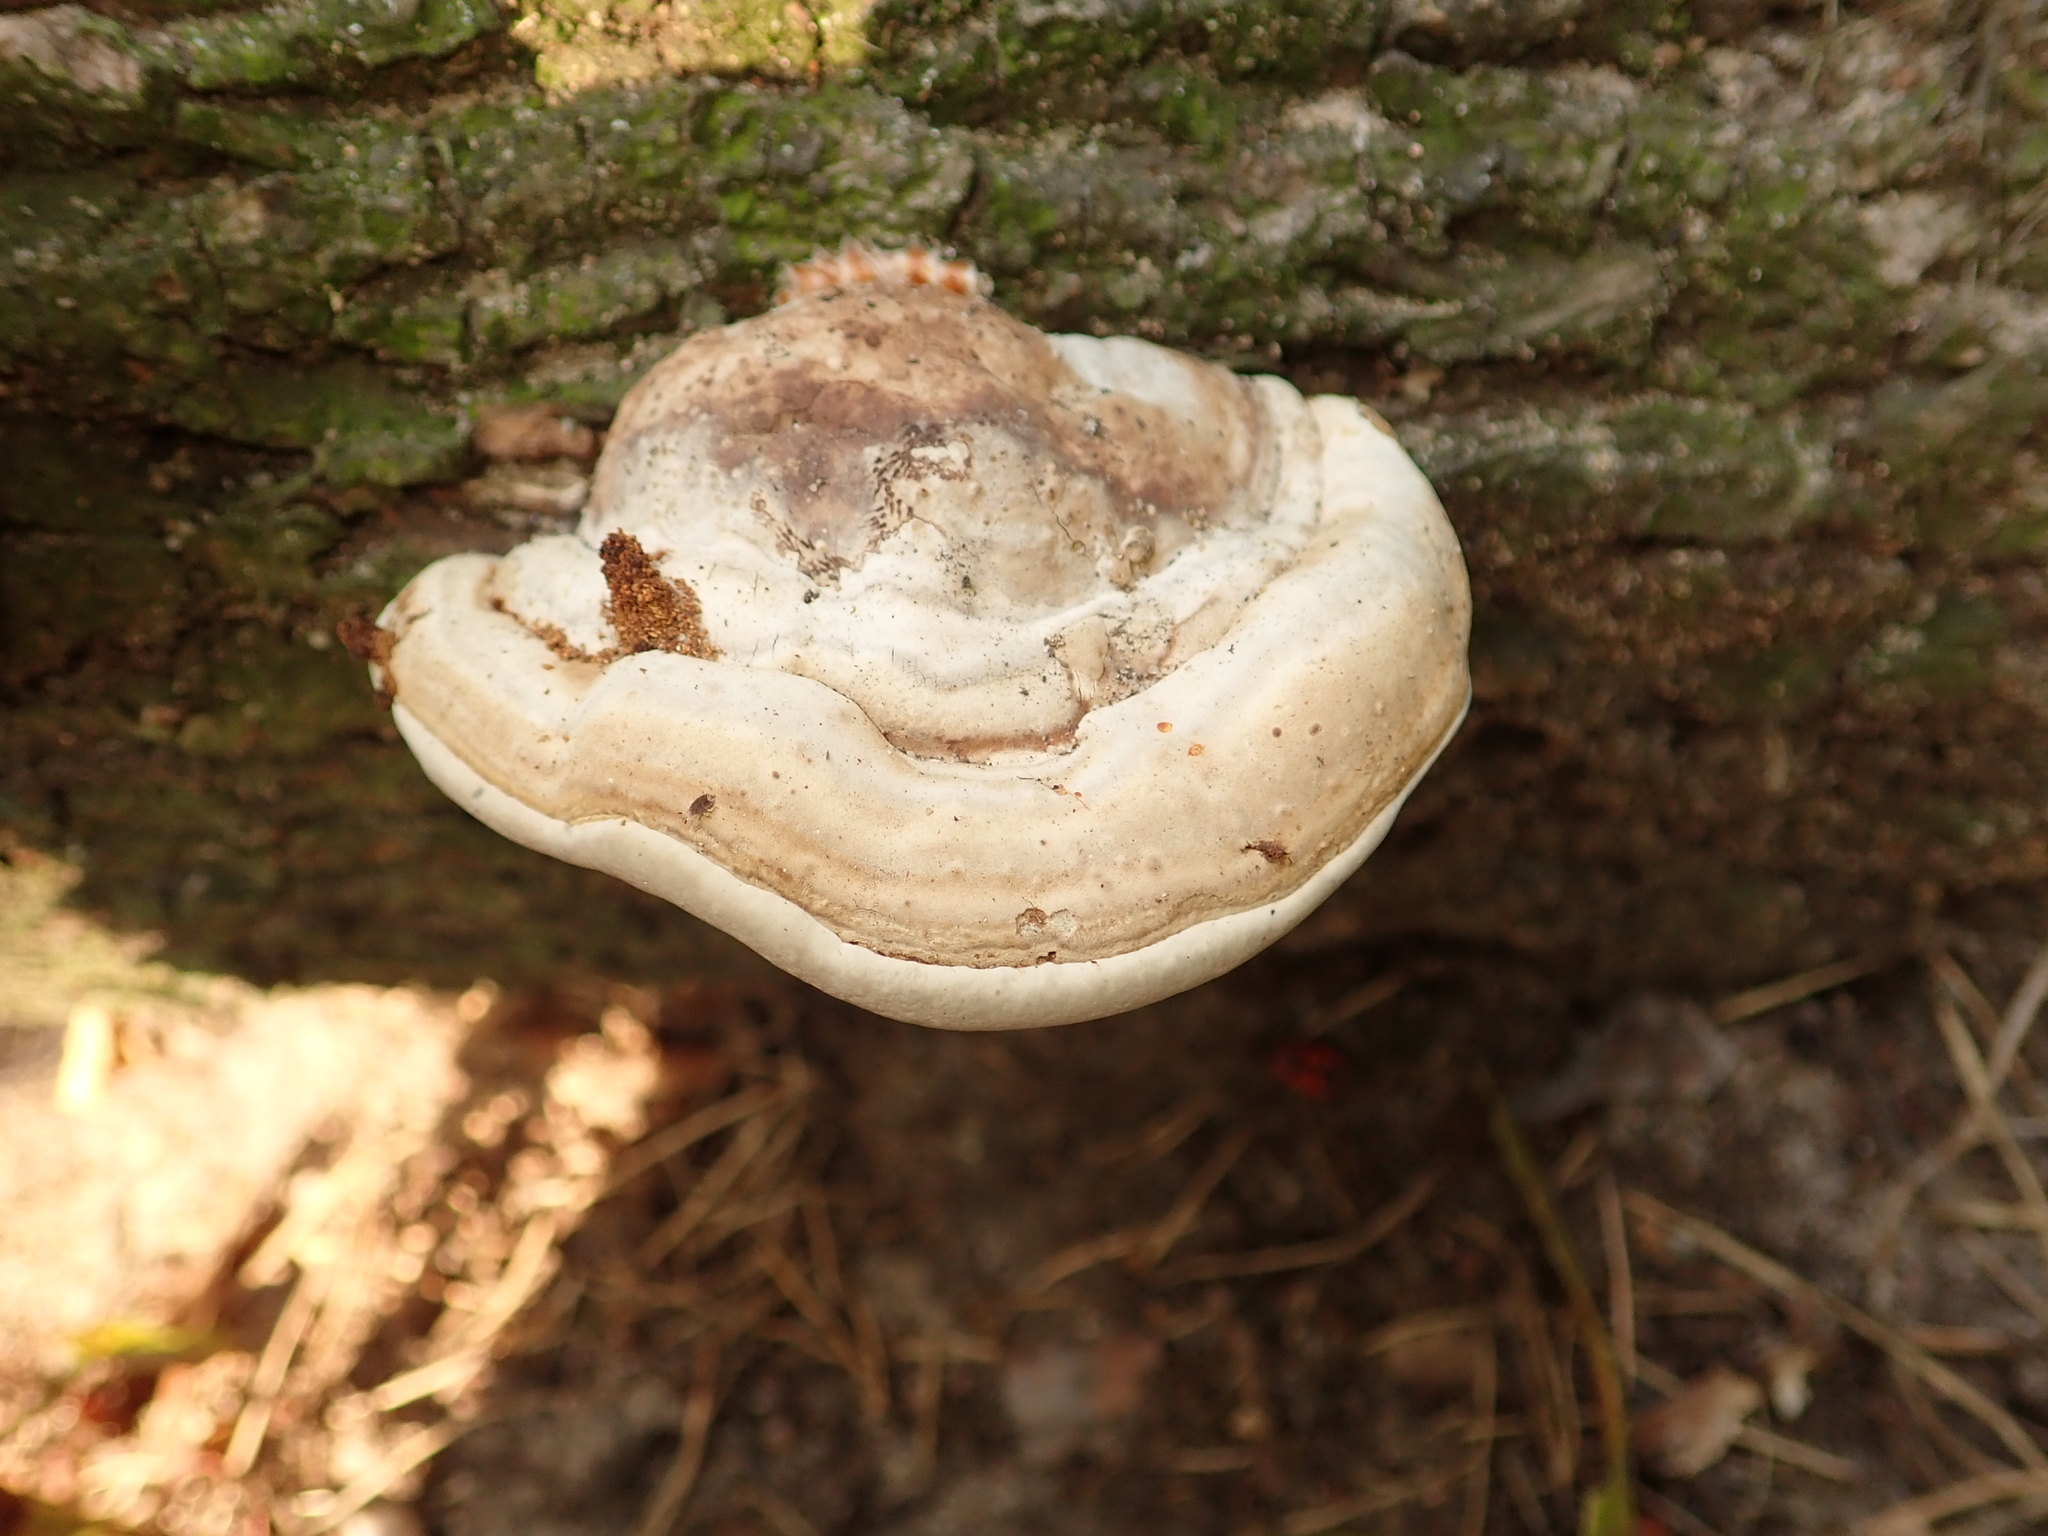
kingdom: Fungi
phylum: Basidiomycota
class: Agaricomycetes
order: Polyporales
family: Polyporaceae
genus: Fomes
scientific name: Fomes fomentarius
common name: Hoof fungus
